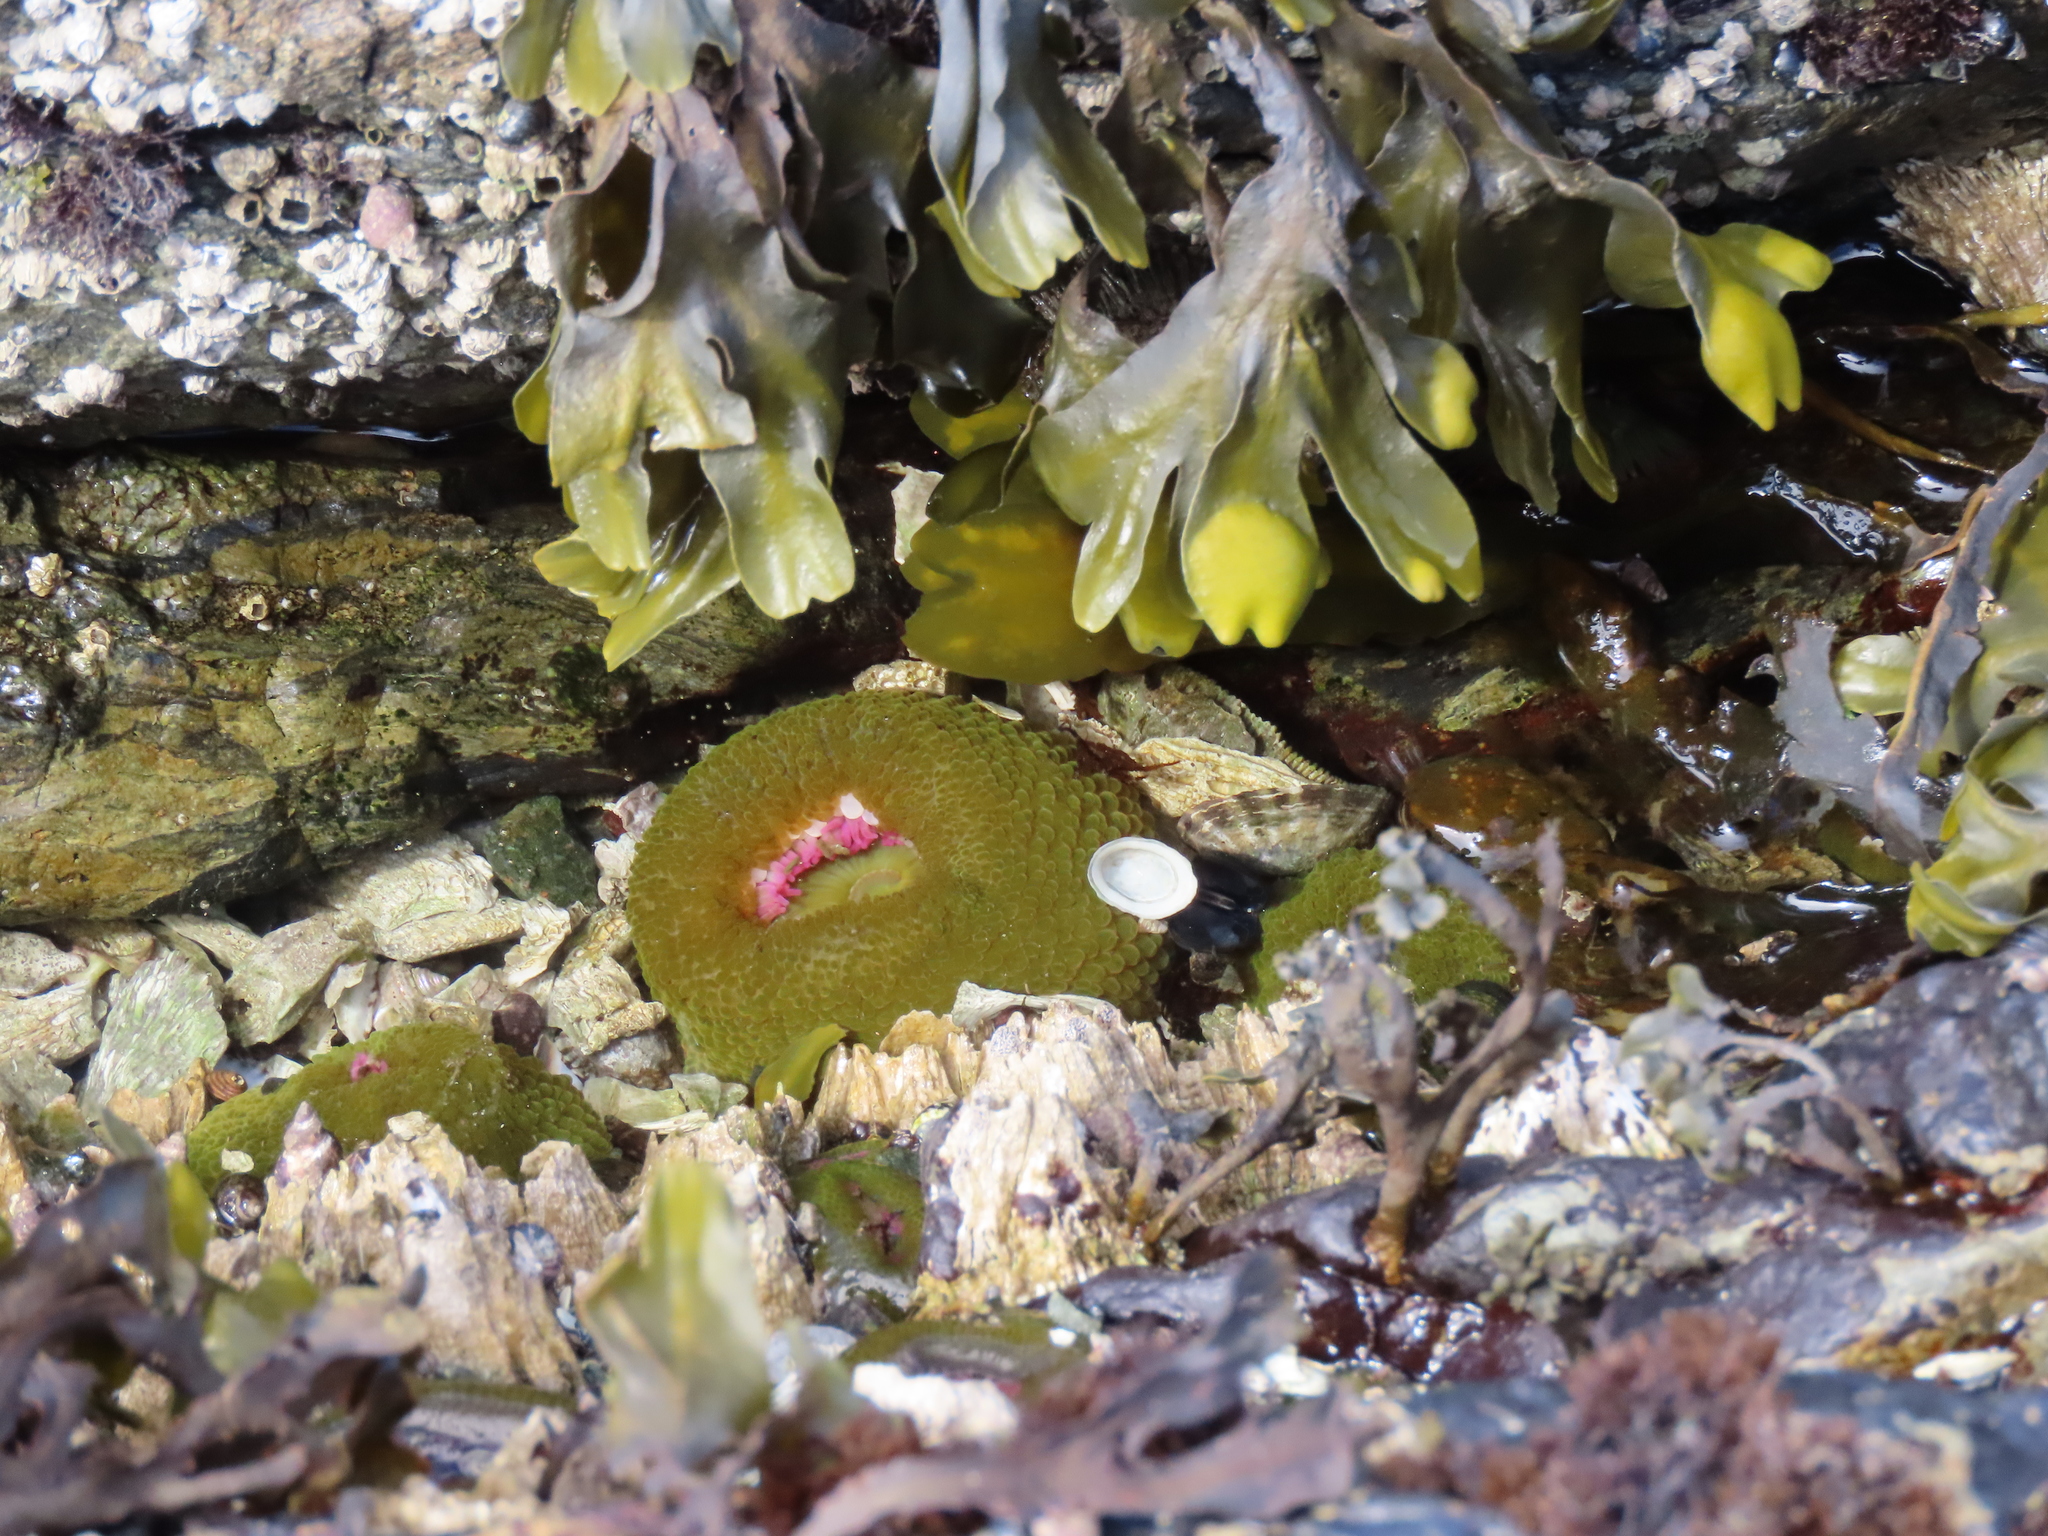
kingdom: Animalia
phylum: Cnidaria
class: Anthozoa
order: Actiniaria
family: Actiniidae
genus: Anthopleura
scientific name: Anthopleura elegantissima
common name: Clonal anemone
